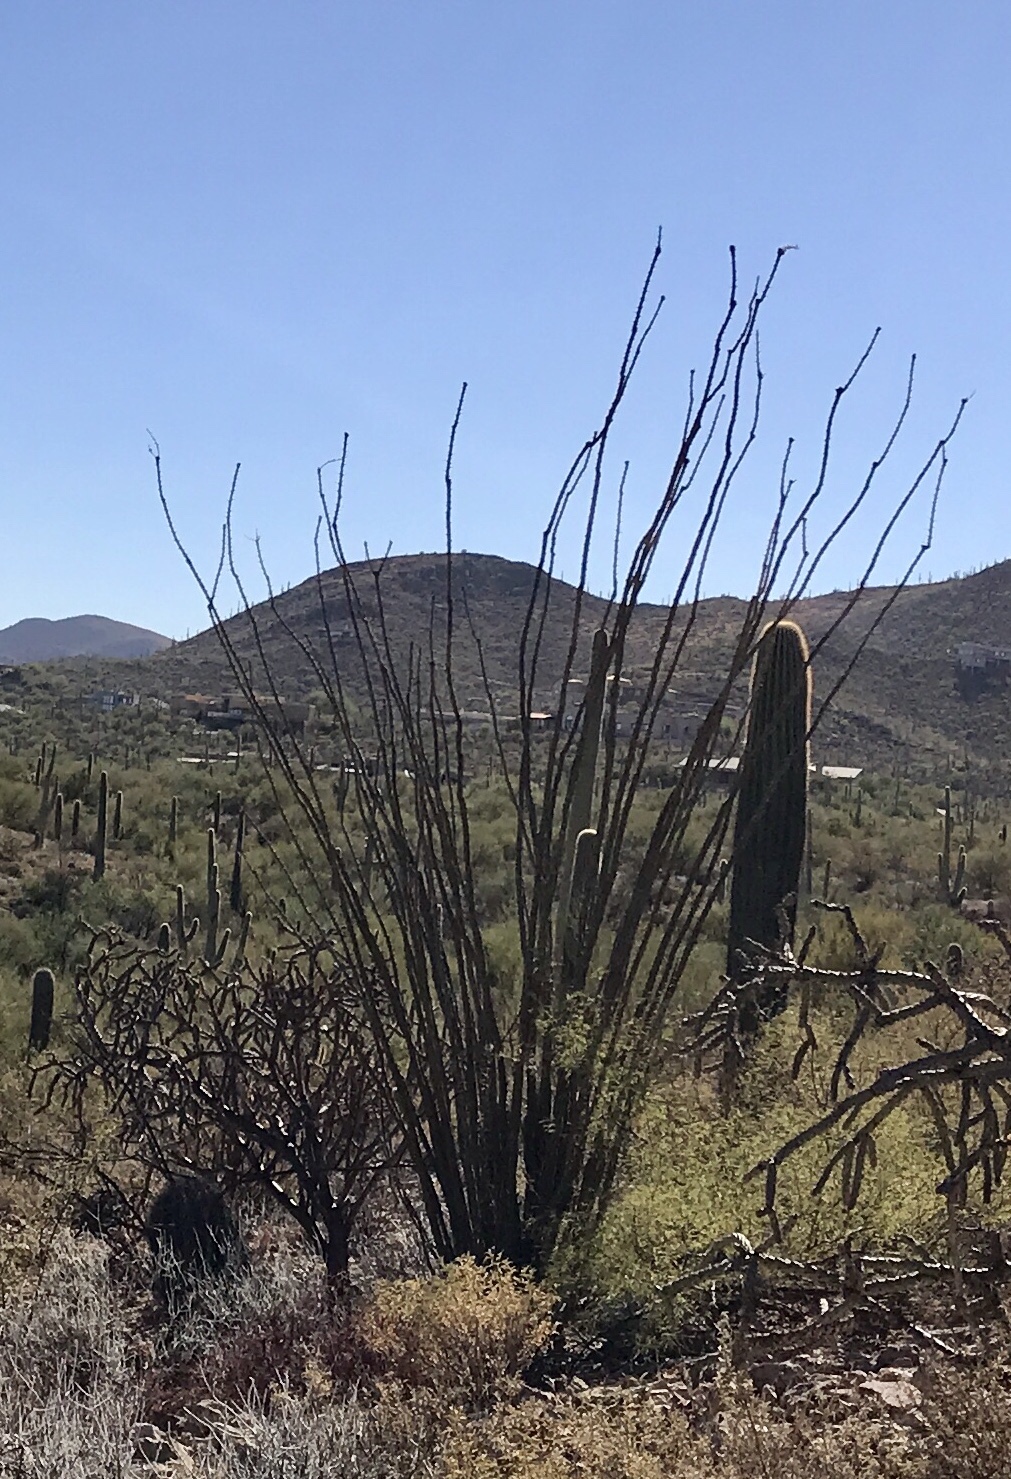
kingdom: Plantae
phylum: Tracheophyta
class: Magnoliopsida
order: Ericales
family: Fouquieriaceae
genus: Fouquieria
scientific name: Fouquieria splendens
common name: Vine-cactus
